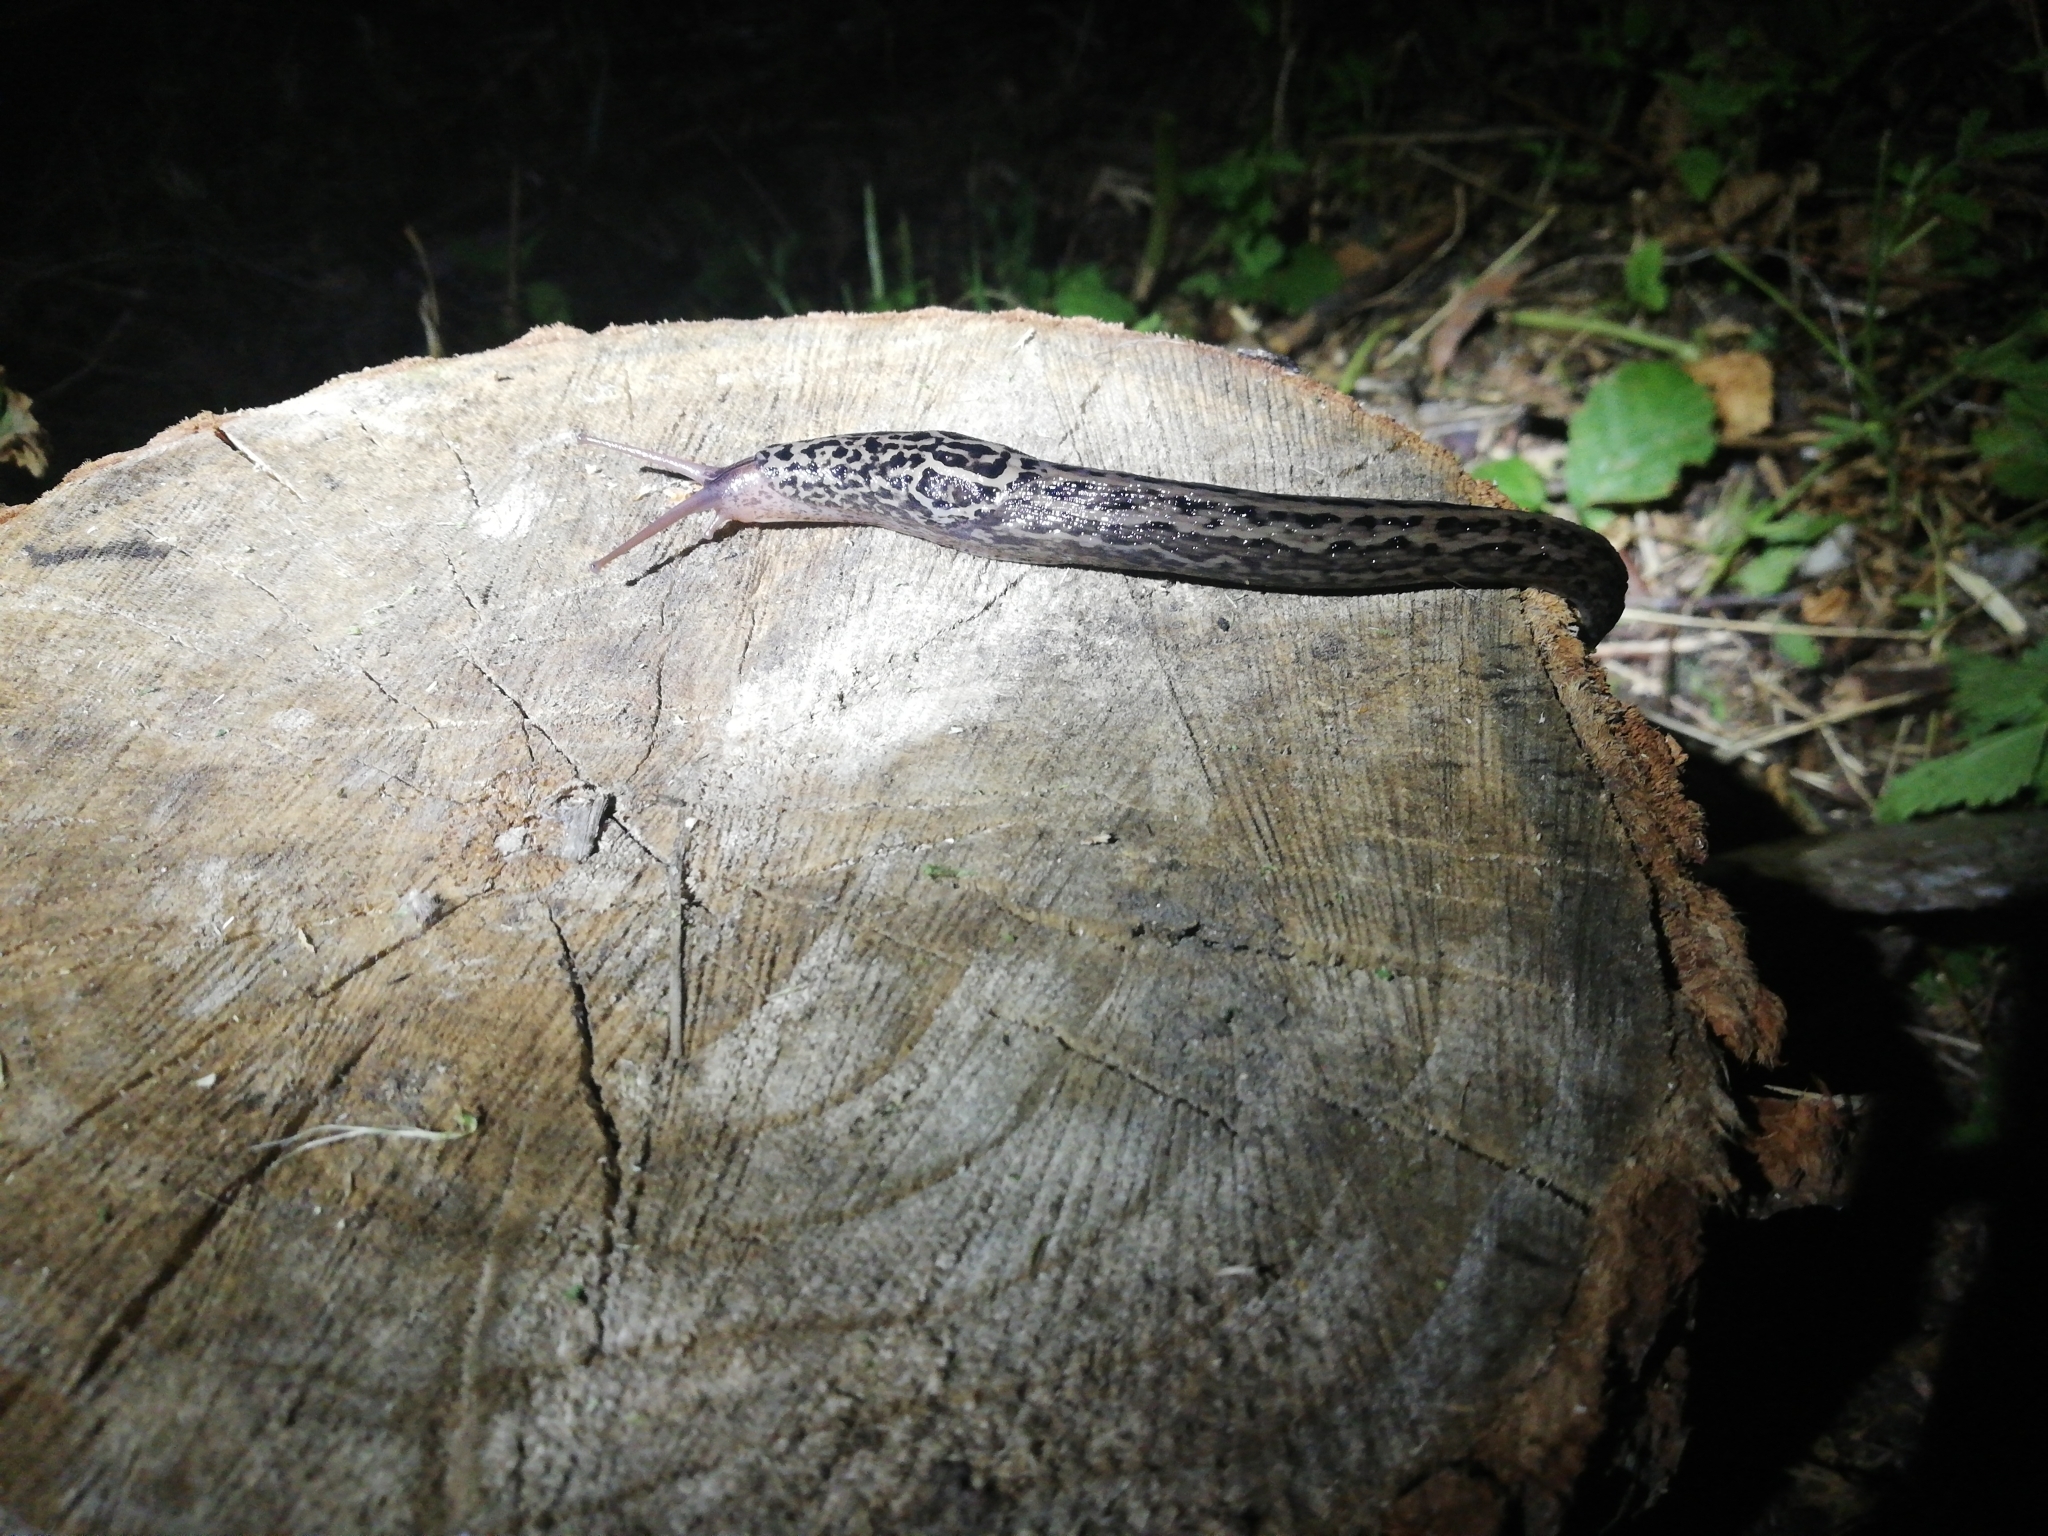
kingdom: Animalia
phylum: Mollusca
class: Gastropoda
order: Stylommatophora
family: Limacidae
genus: Limax
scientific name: Limax maximus
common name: Great grey slug
